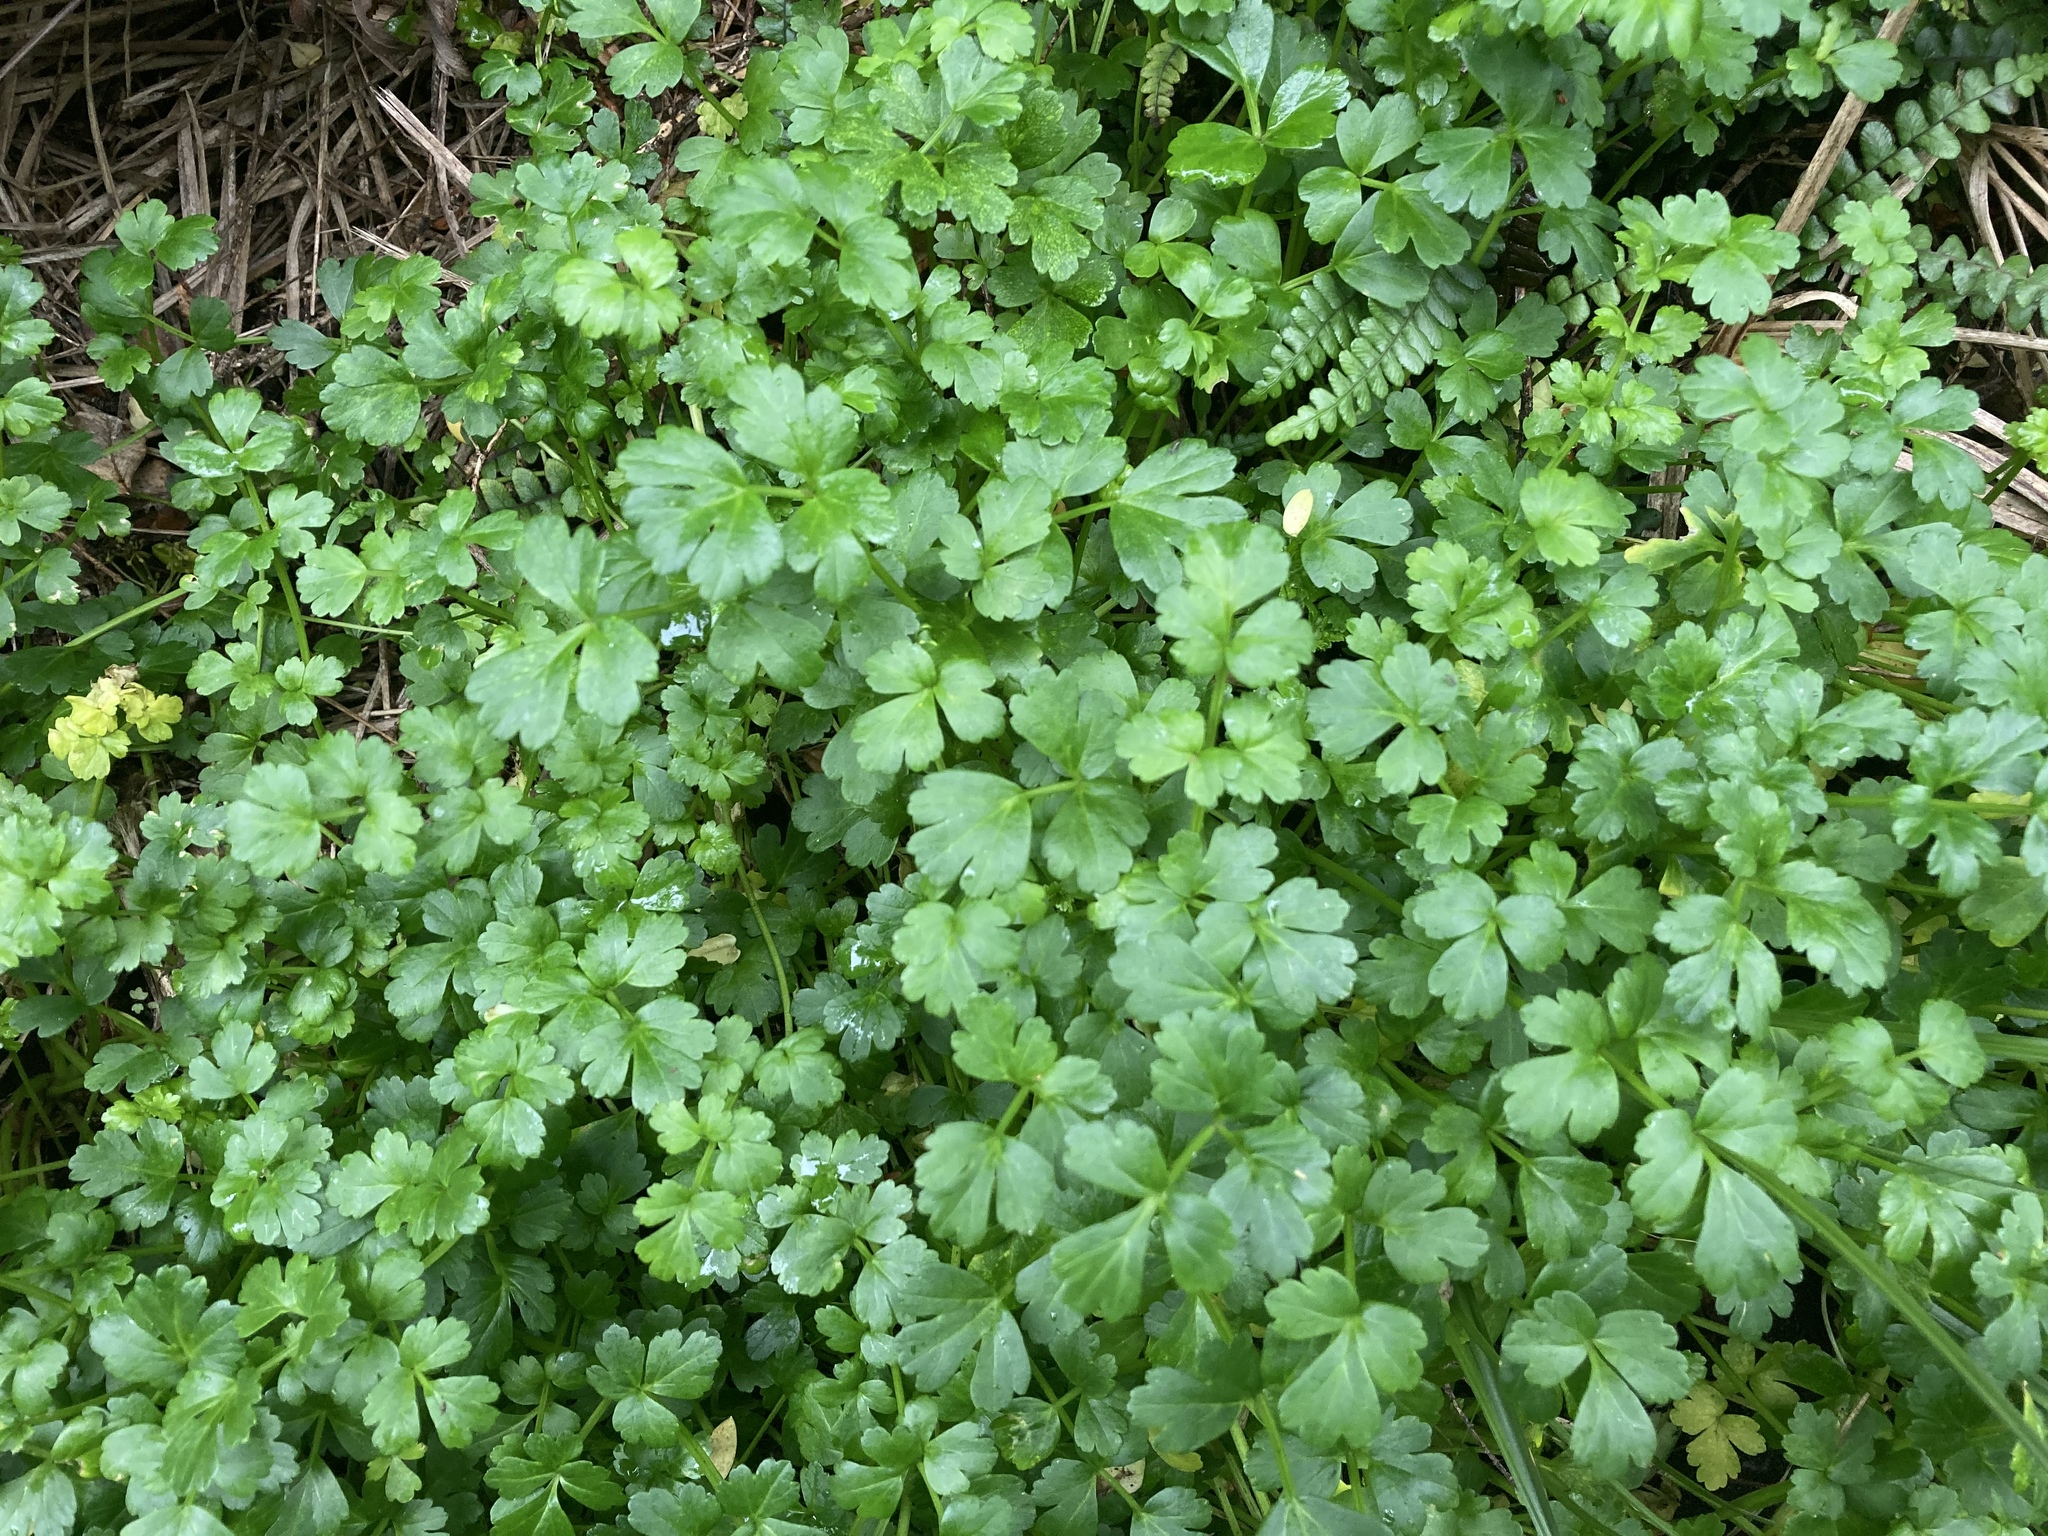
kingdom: Plantae
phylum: Tracheophyta
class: Magnoliopsida
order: Apiales
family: Apiaceae
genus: Apium
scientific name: Apium prostratum
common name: Prostrate marshwort
